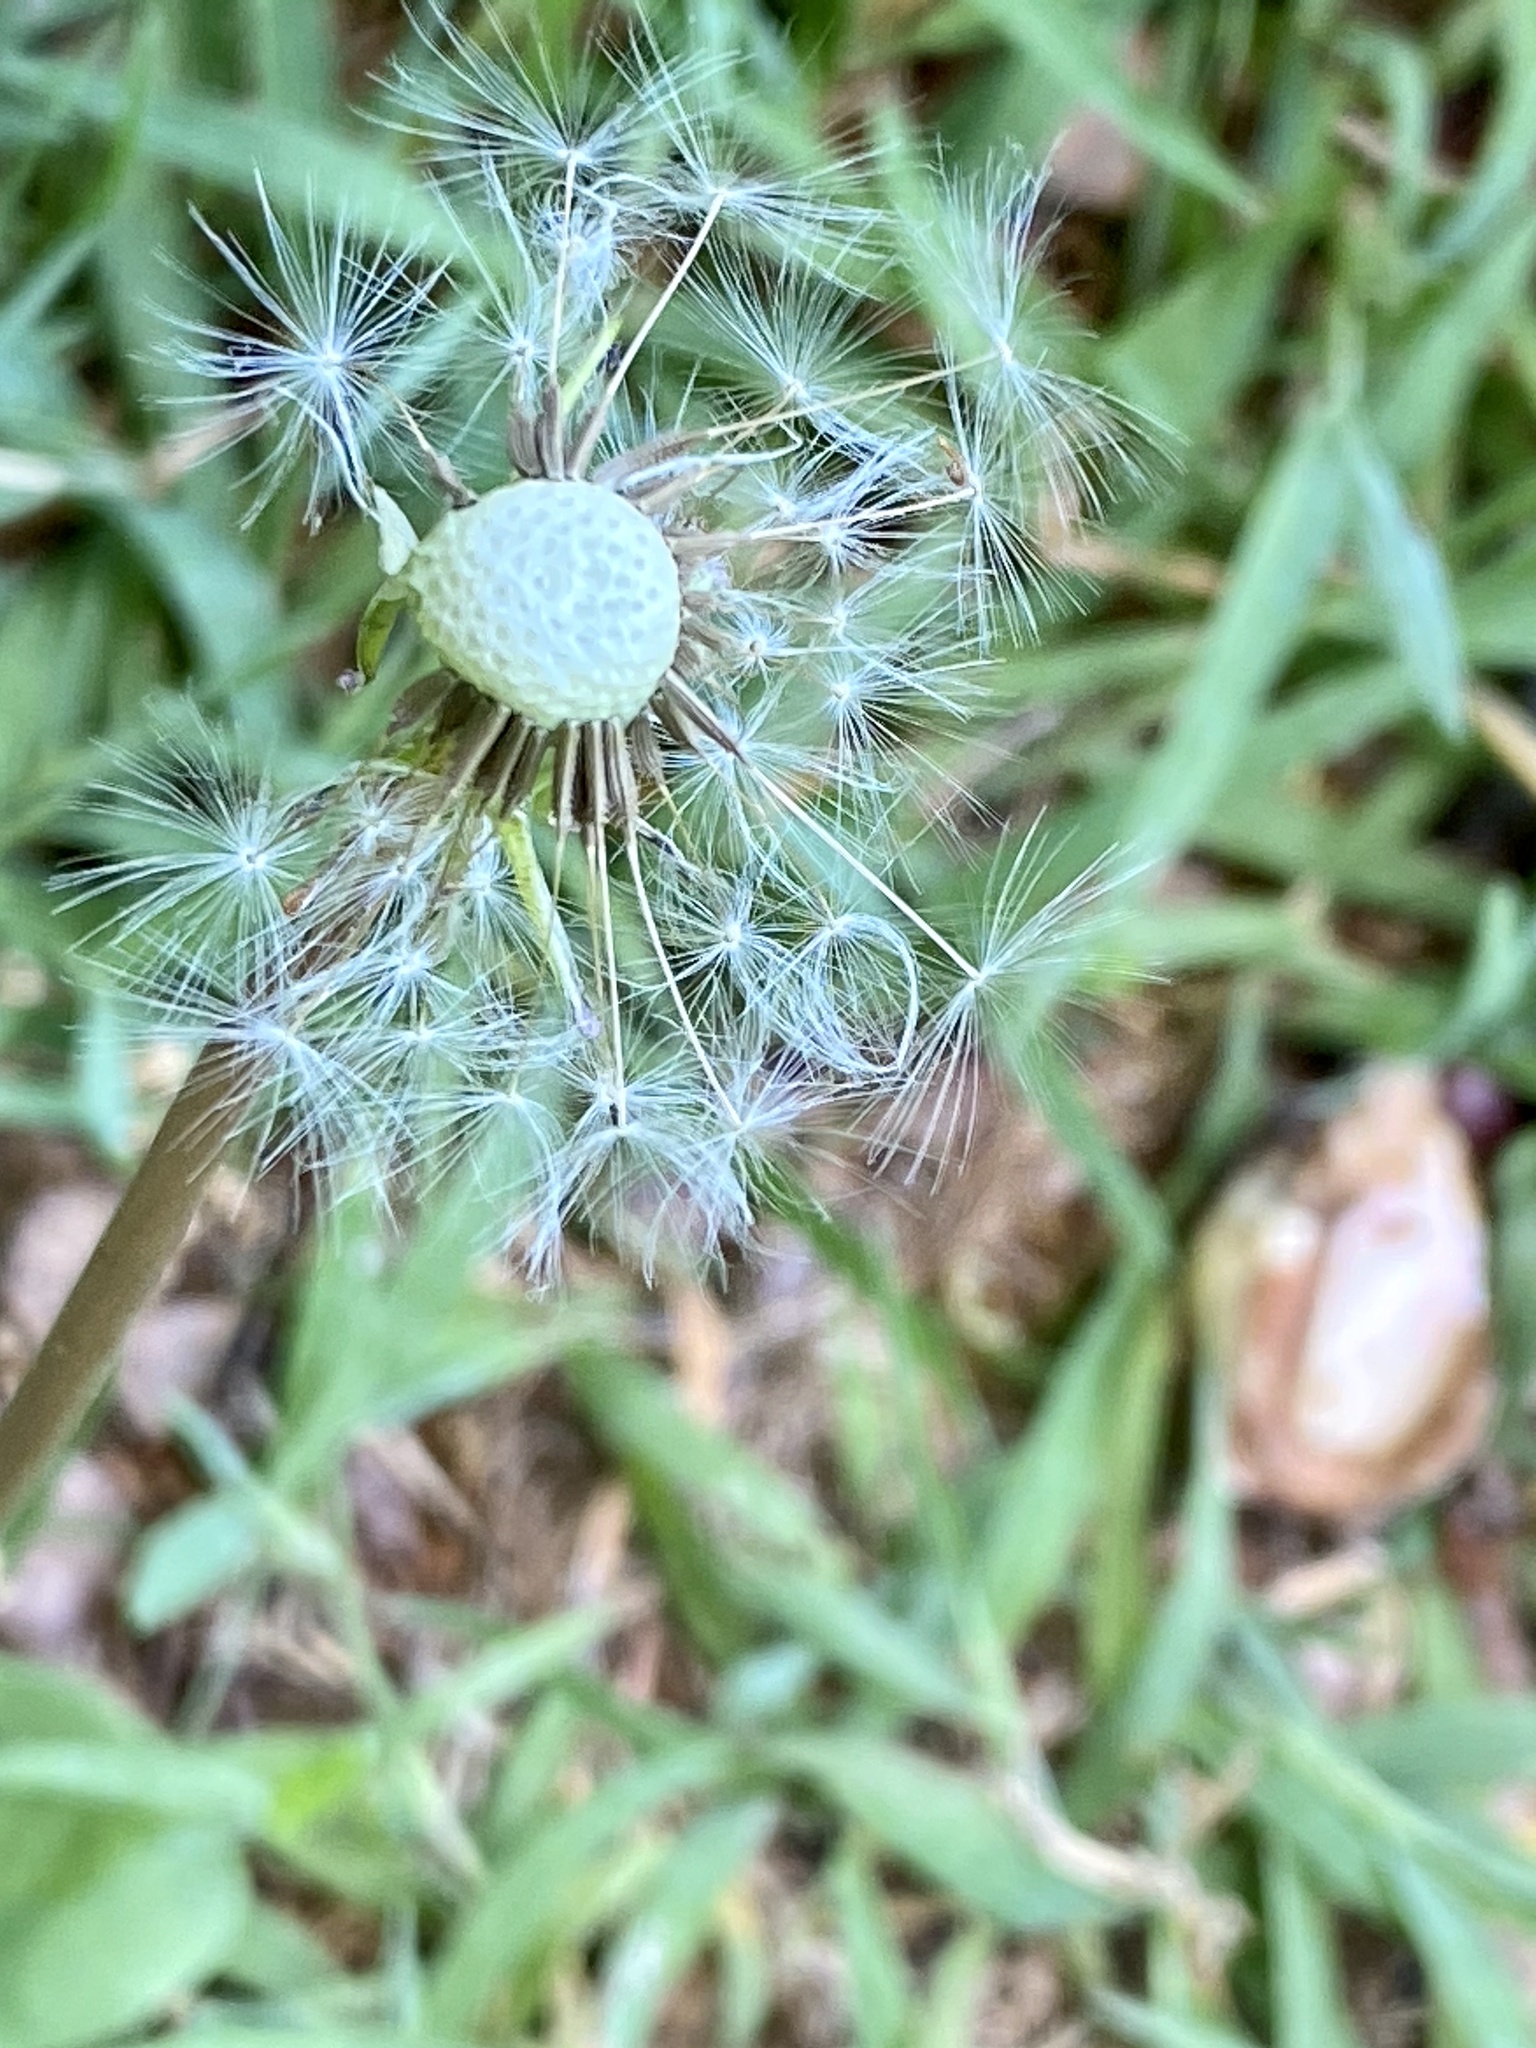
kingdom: Plantae
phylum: Tracheophyta
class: Magnoliopsida
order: Asterales
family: Asteraceae
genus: Taraxacum
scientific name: Taraxacum officinale
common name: Common dandelion
